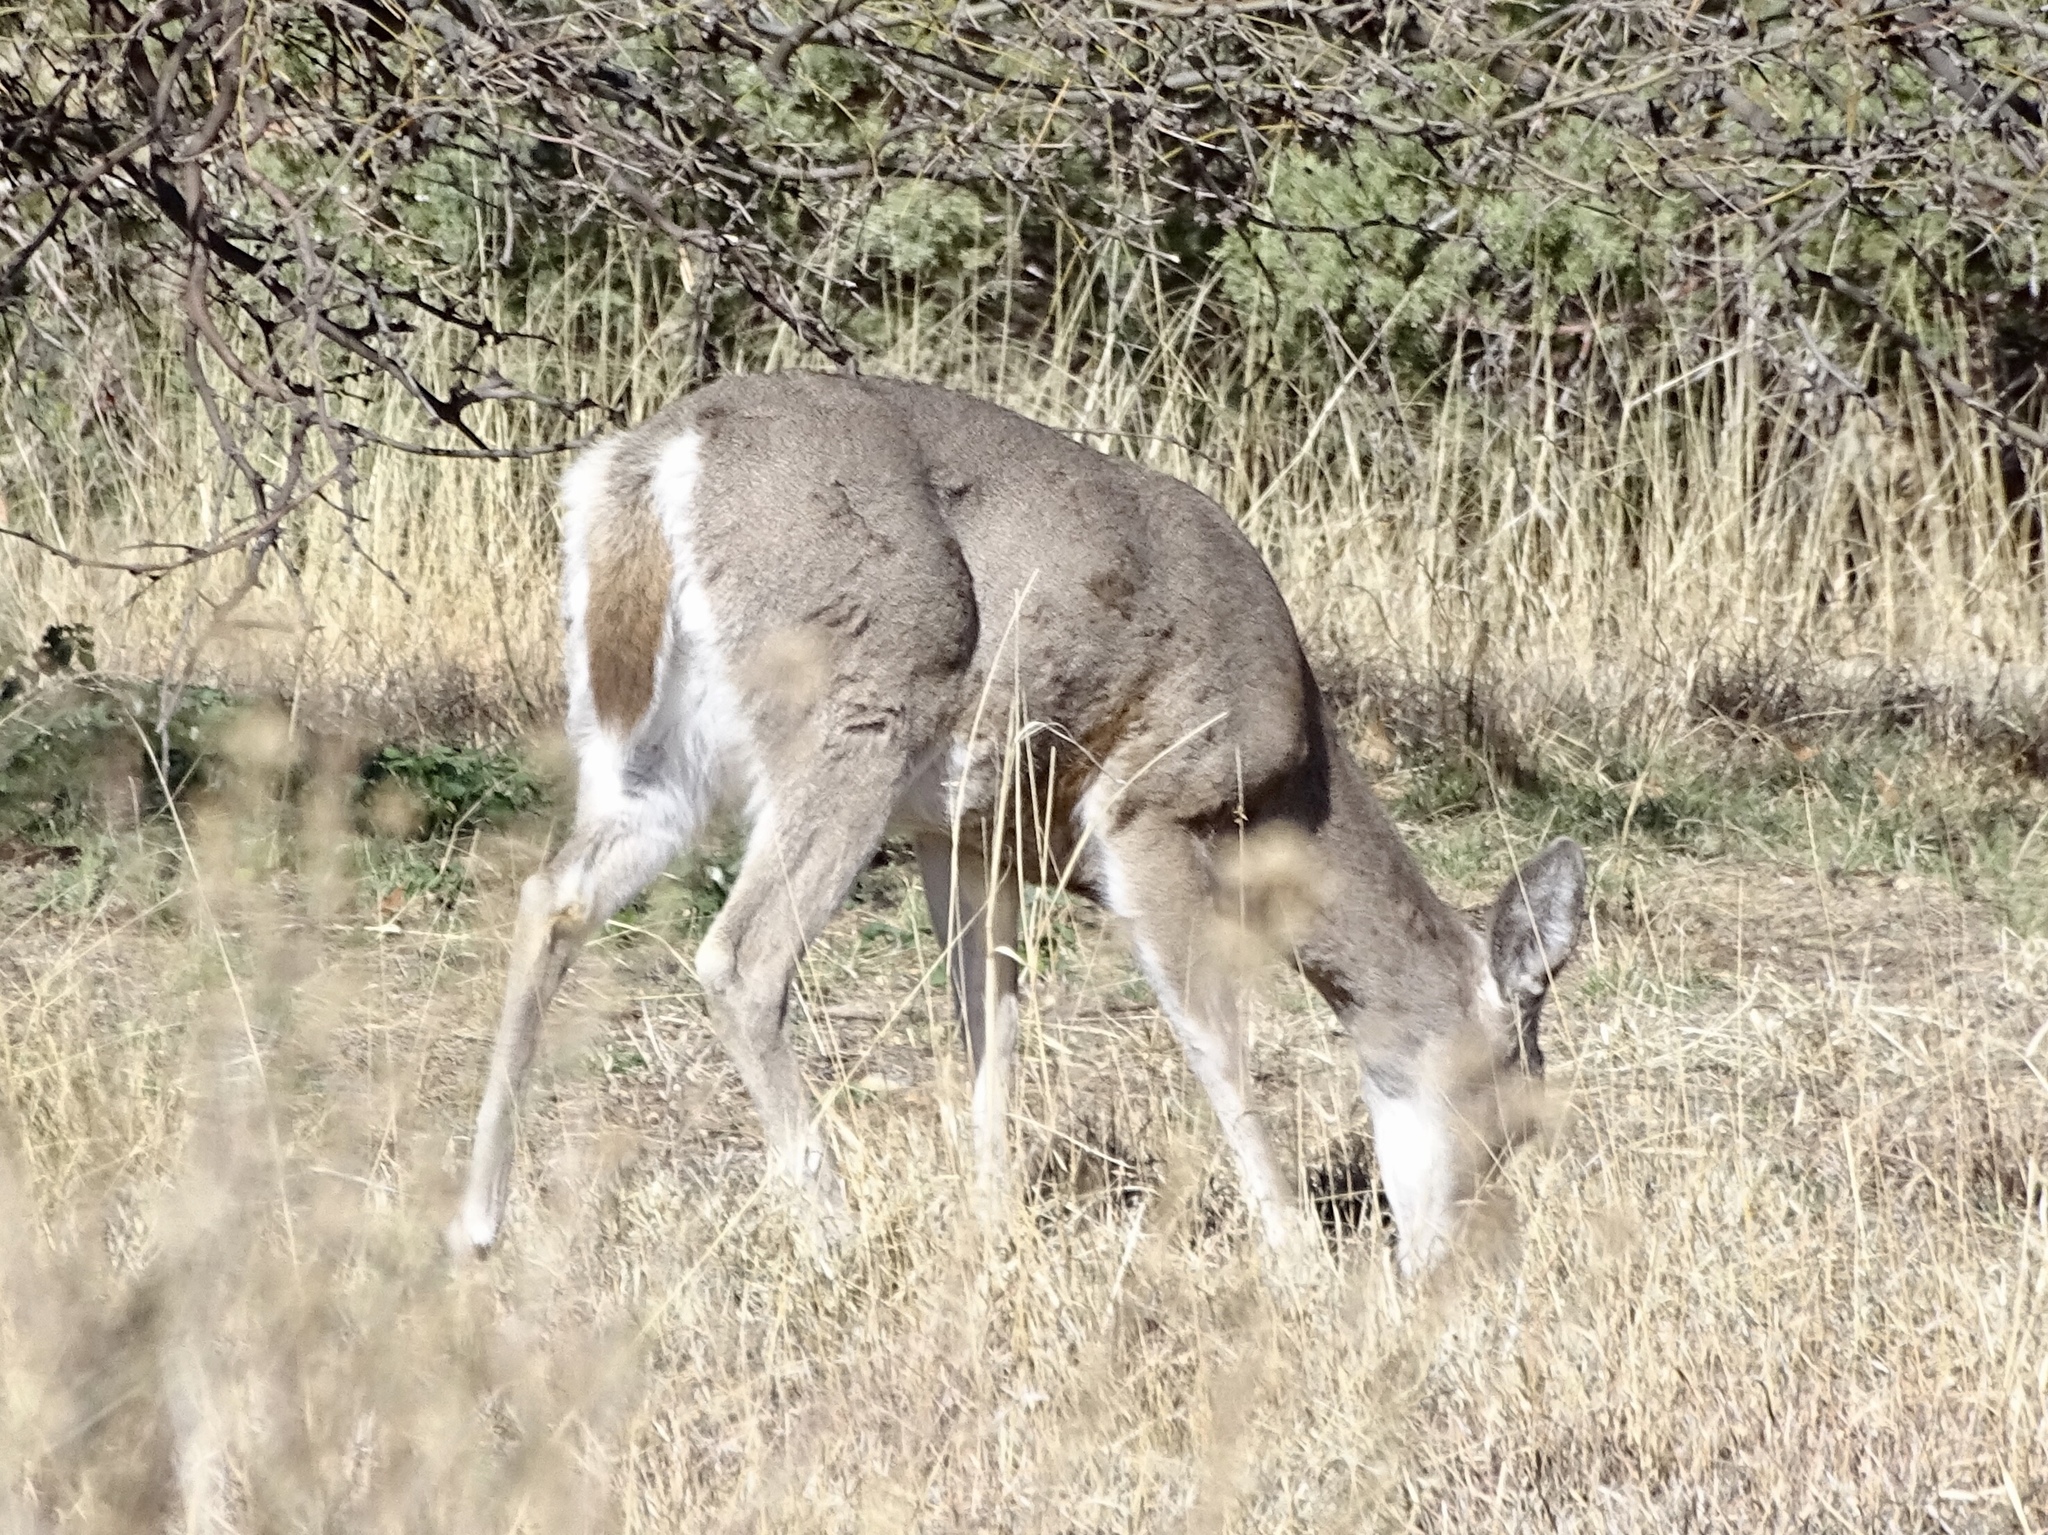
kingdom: Animalia
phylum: Chordata
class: Mammalia
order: Artiodactyla
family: Cervidae
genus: Odocoileus
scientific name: Odocoileus virginianus
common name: White-tailed deer
